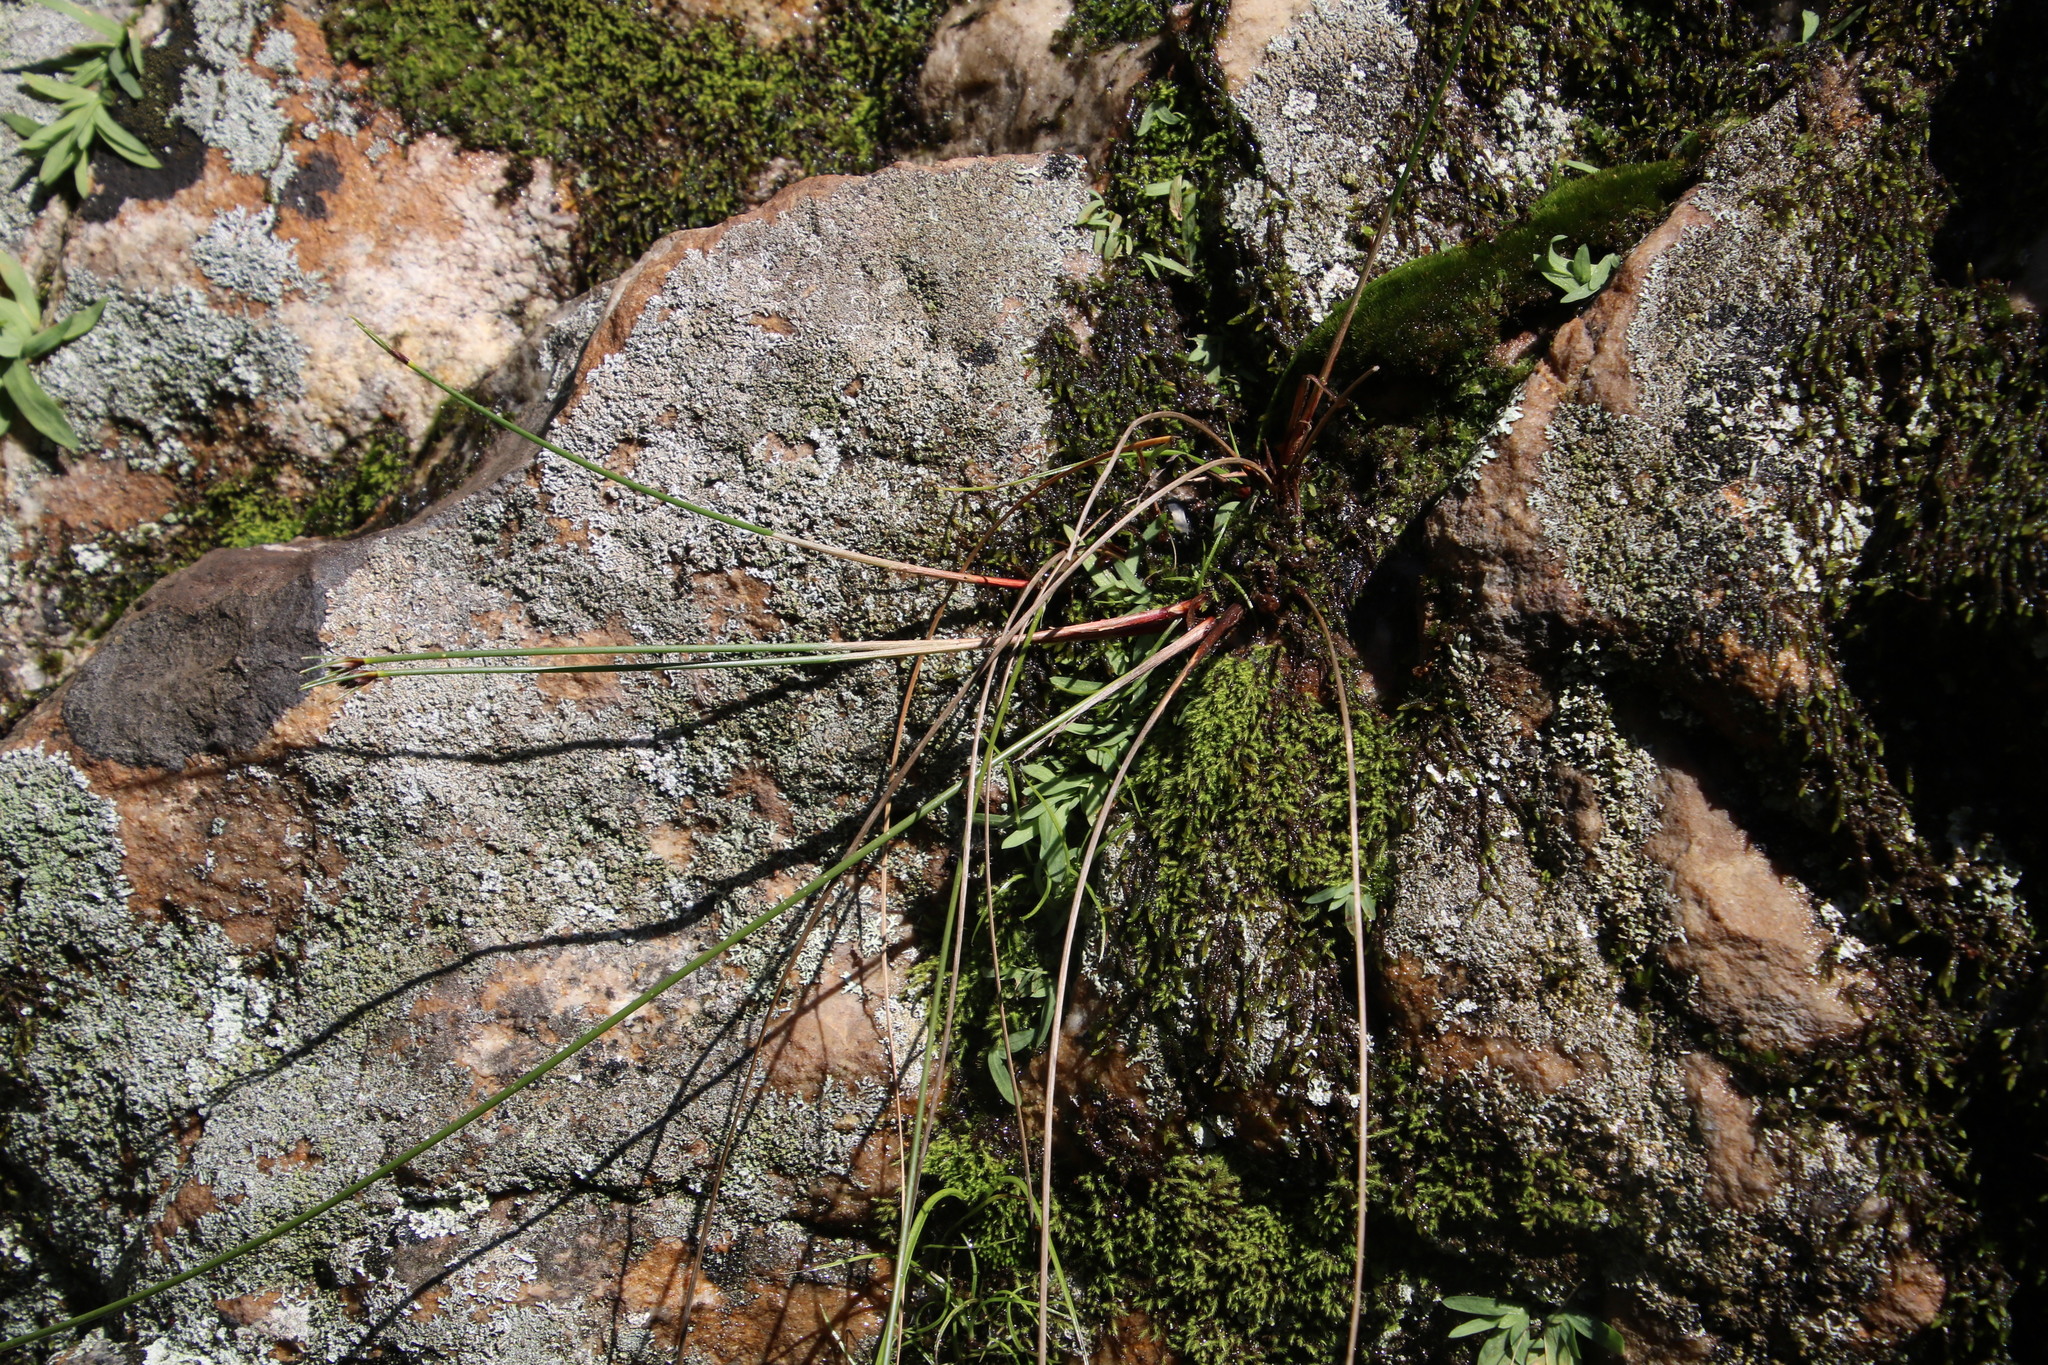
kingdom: Plantae
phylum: Tracheophyta
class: Liliopsida
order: Poales
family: Cyperaceae
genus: Ficinia
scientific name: Ficinia brevifolia
